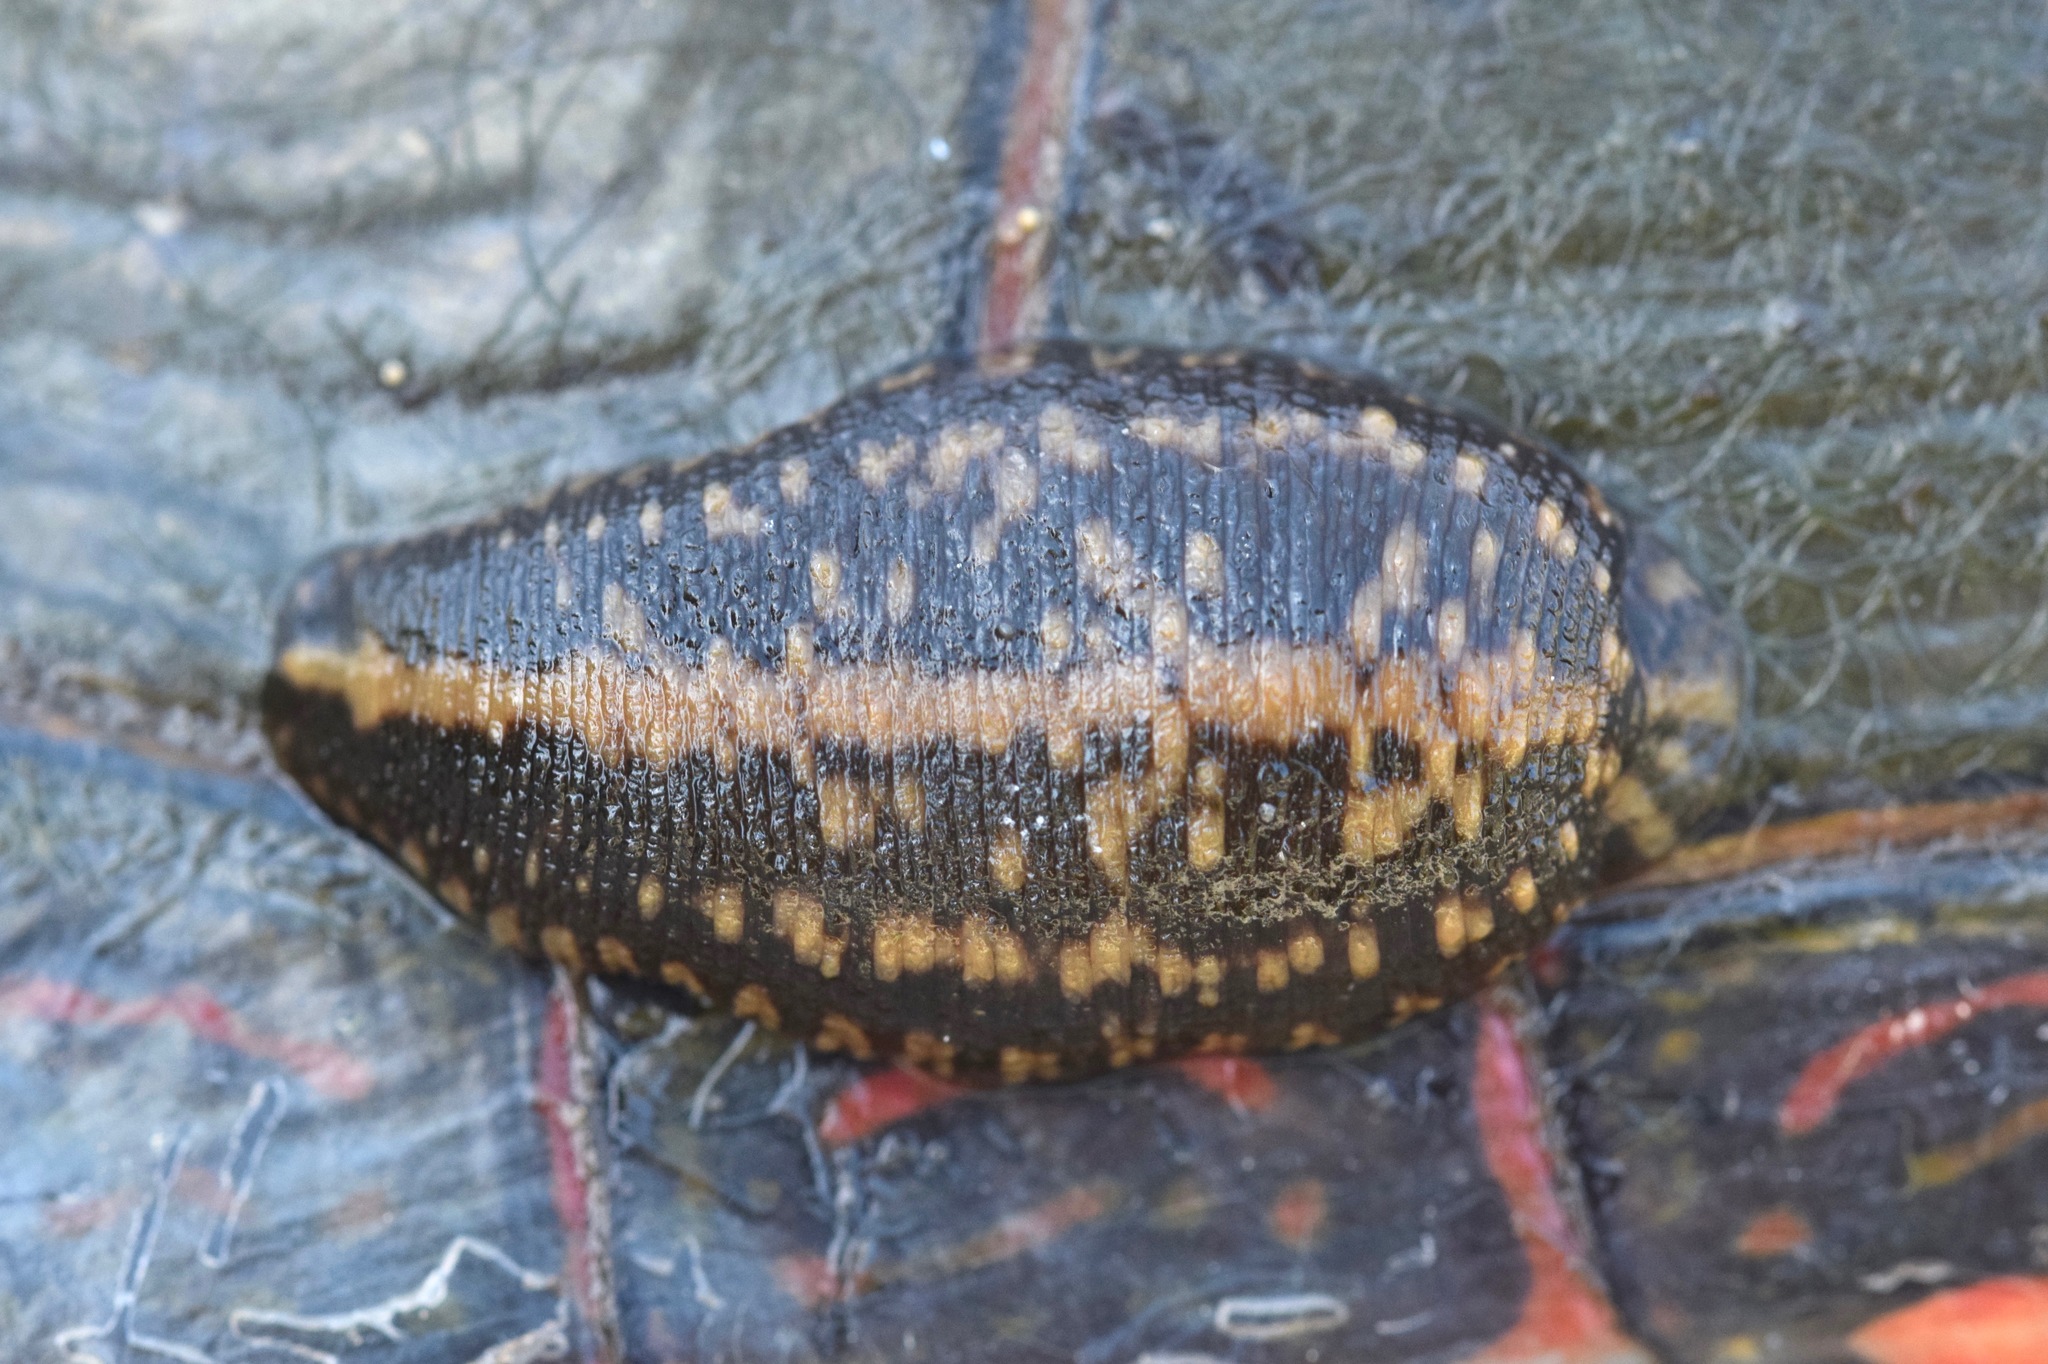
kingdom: Animalia
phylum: Annelida
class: Clitellata
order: Rhynchobdellida
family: Glossiphoniidae
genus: Placobdella
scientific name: Placobdella parasitica
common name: Smooth turtle leech
